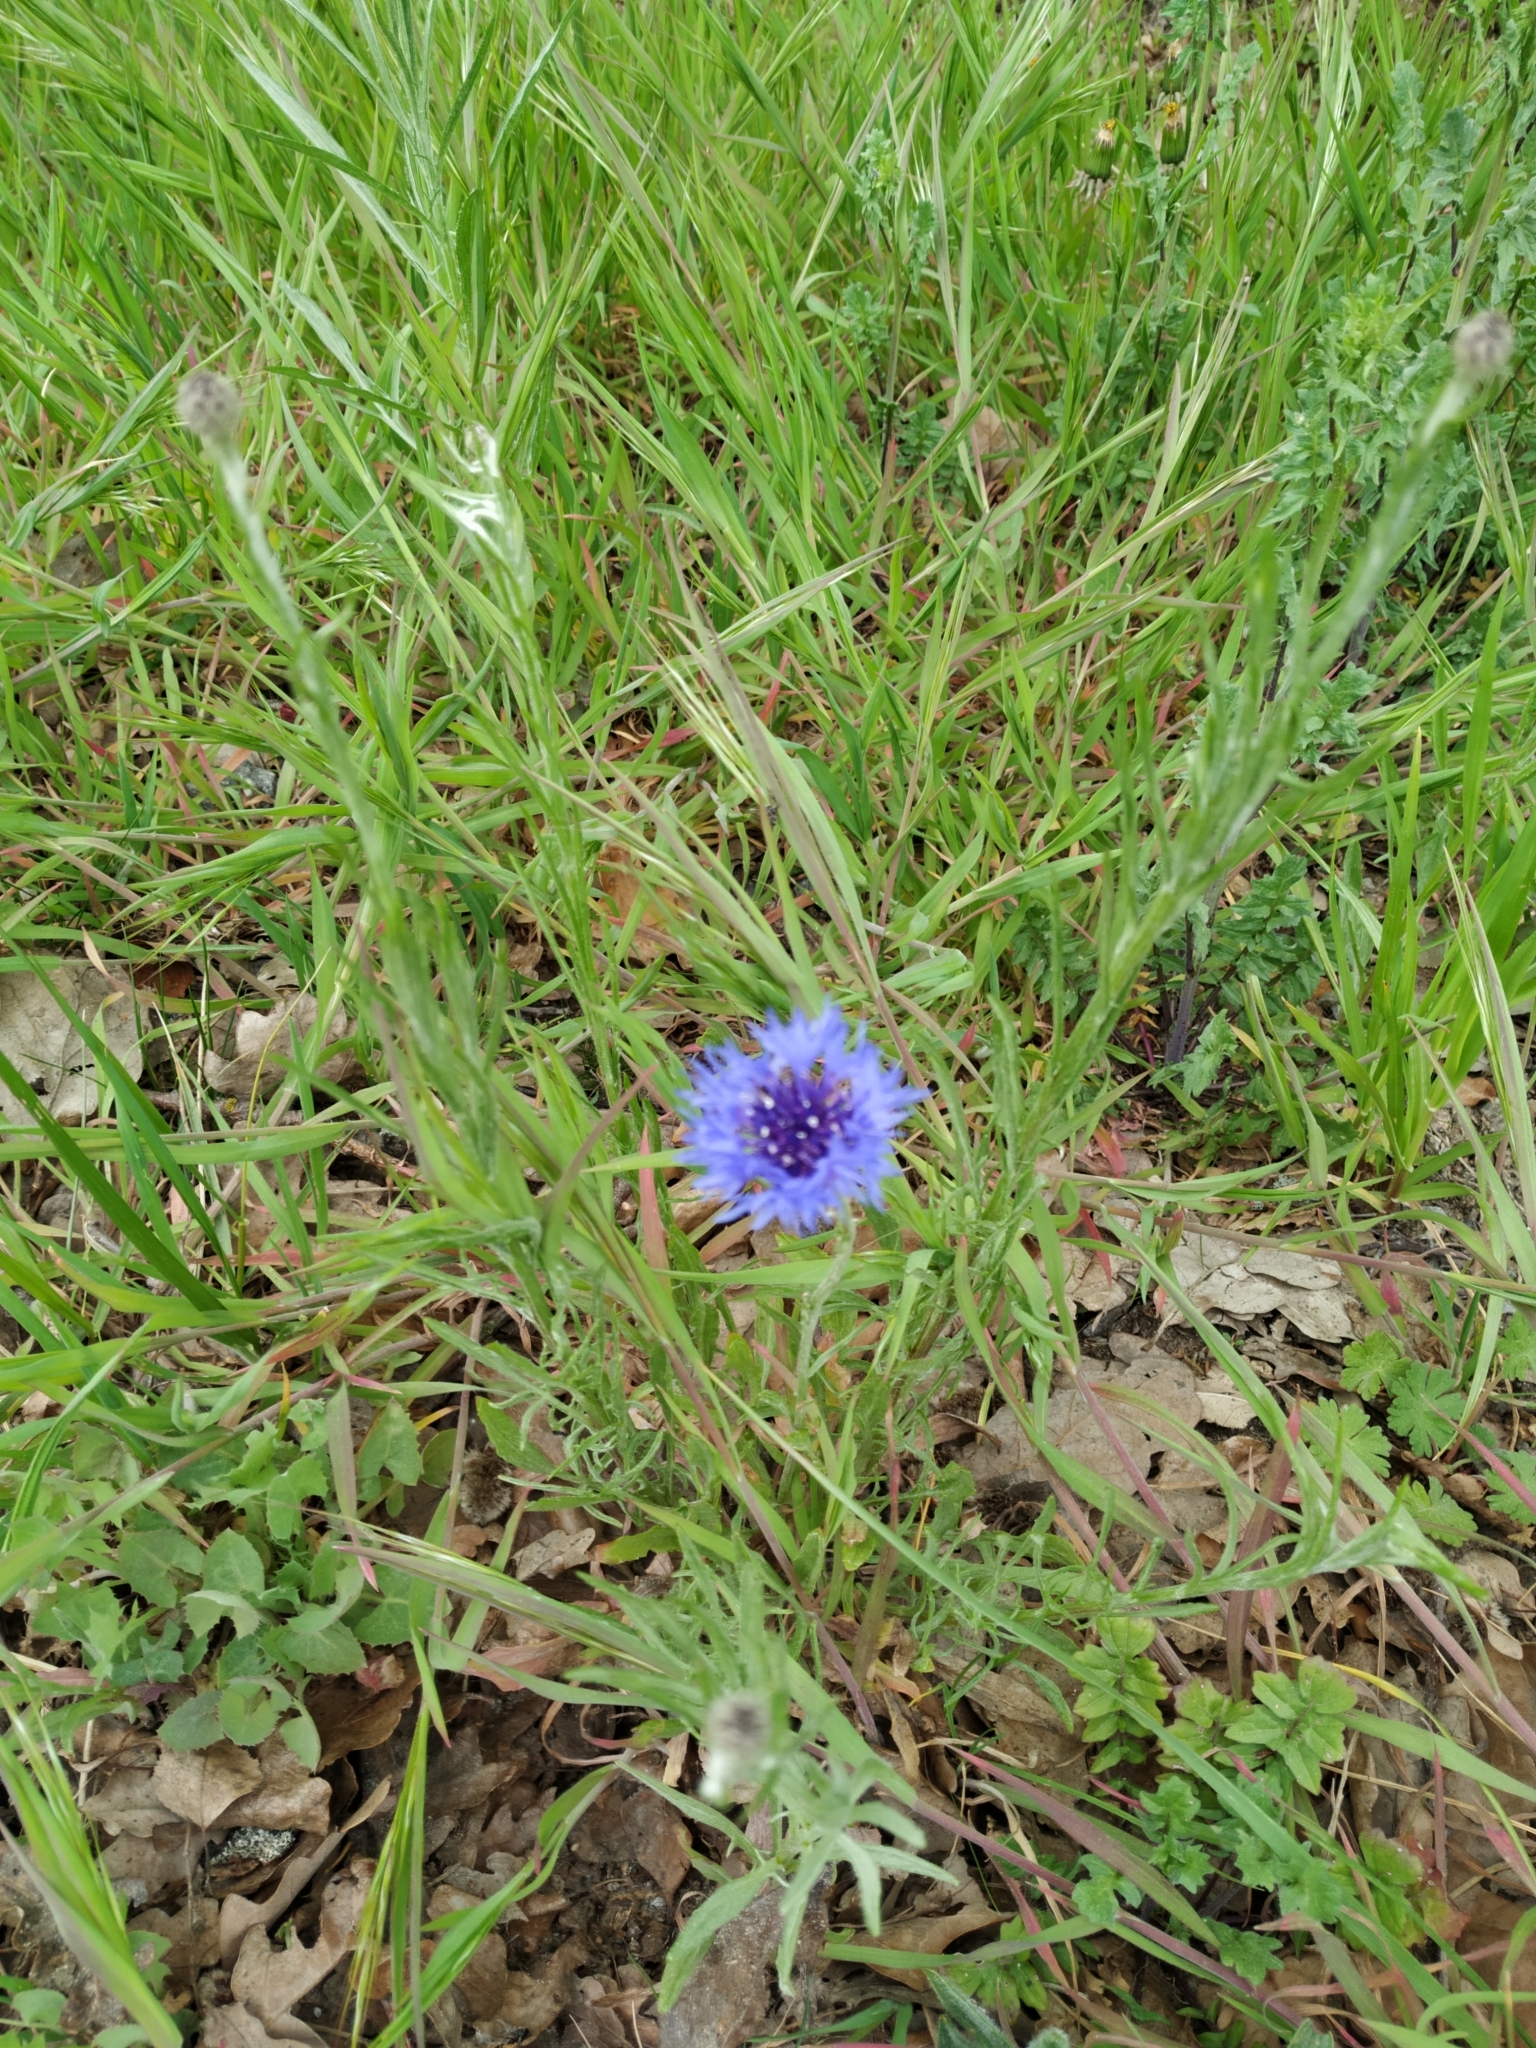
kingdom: Plantae
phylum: Tracheophyta
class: Magnoliopsida
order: Asterales
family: Asteraceae
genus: Centaurea
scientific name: Centaurea cyanus
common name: Cornflower
